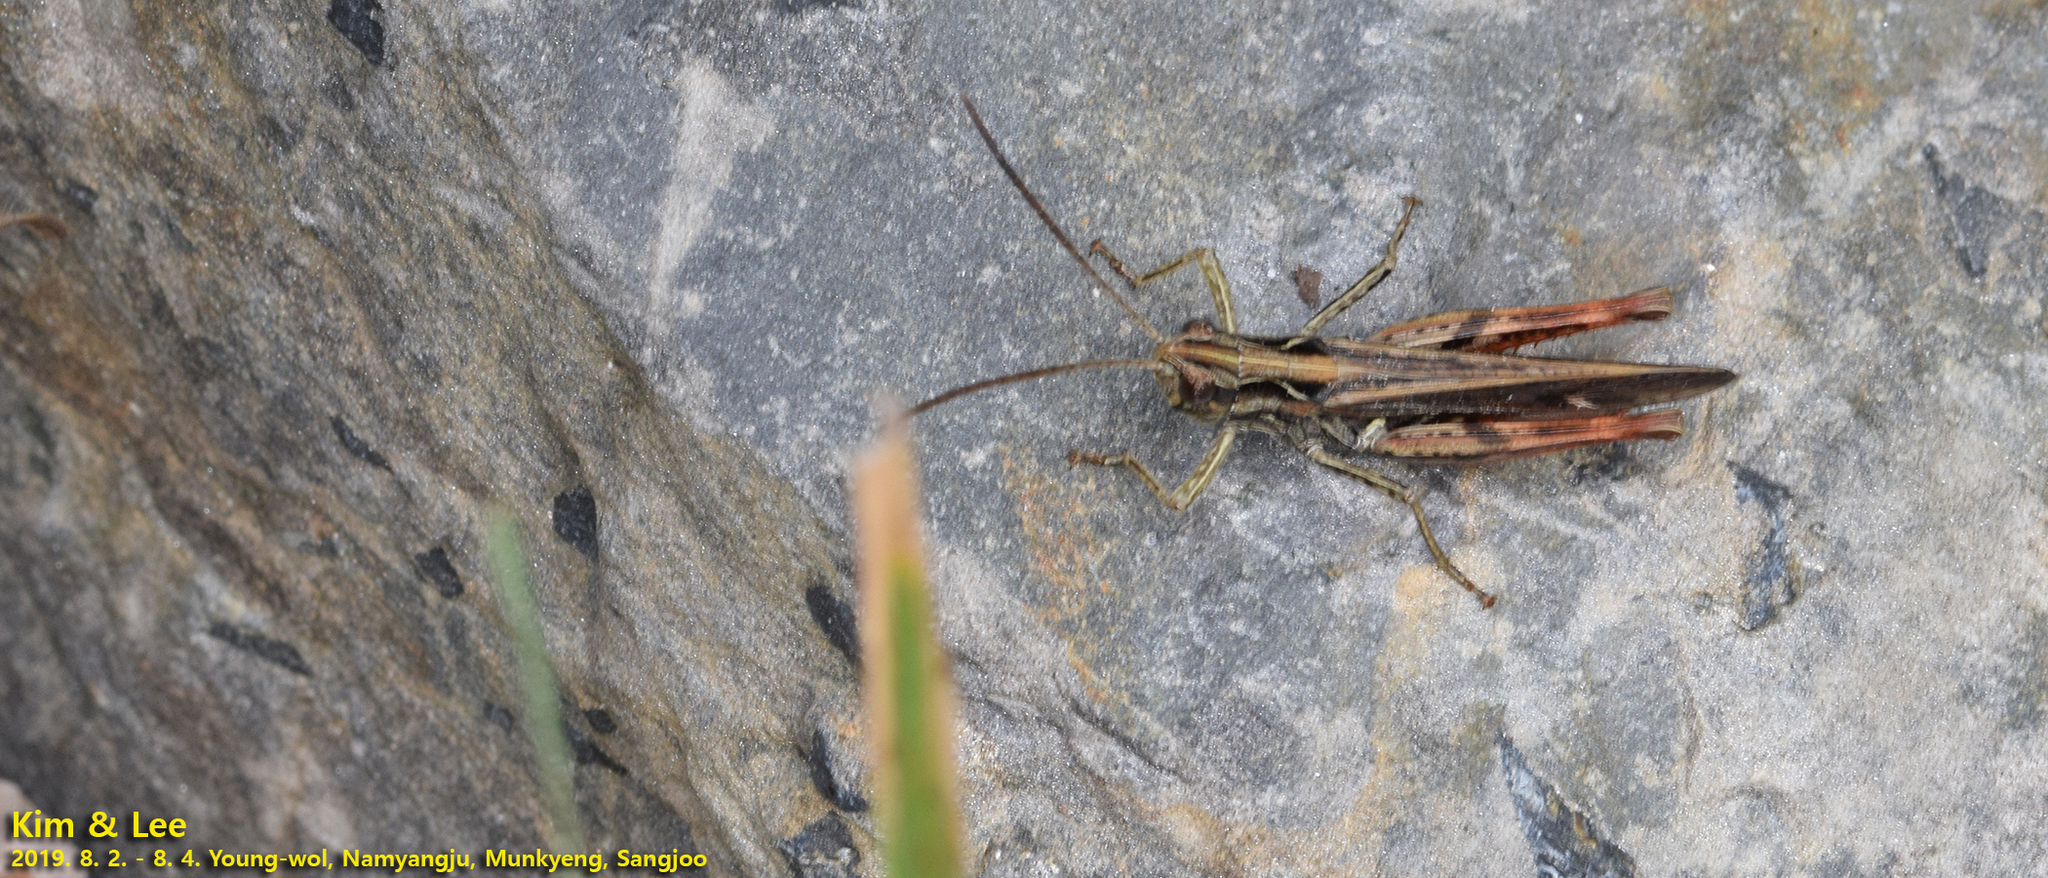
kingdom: Animalia
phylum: Arthropoda
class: Insecta
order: Orthoptera
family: Acrididae
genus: Chorthippus
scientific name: Chorthippus maritimus
